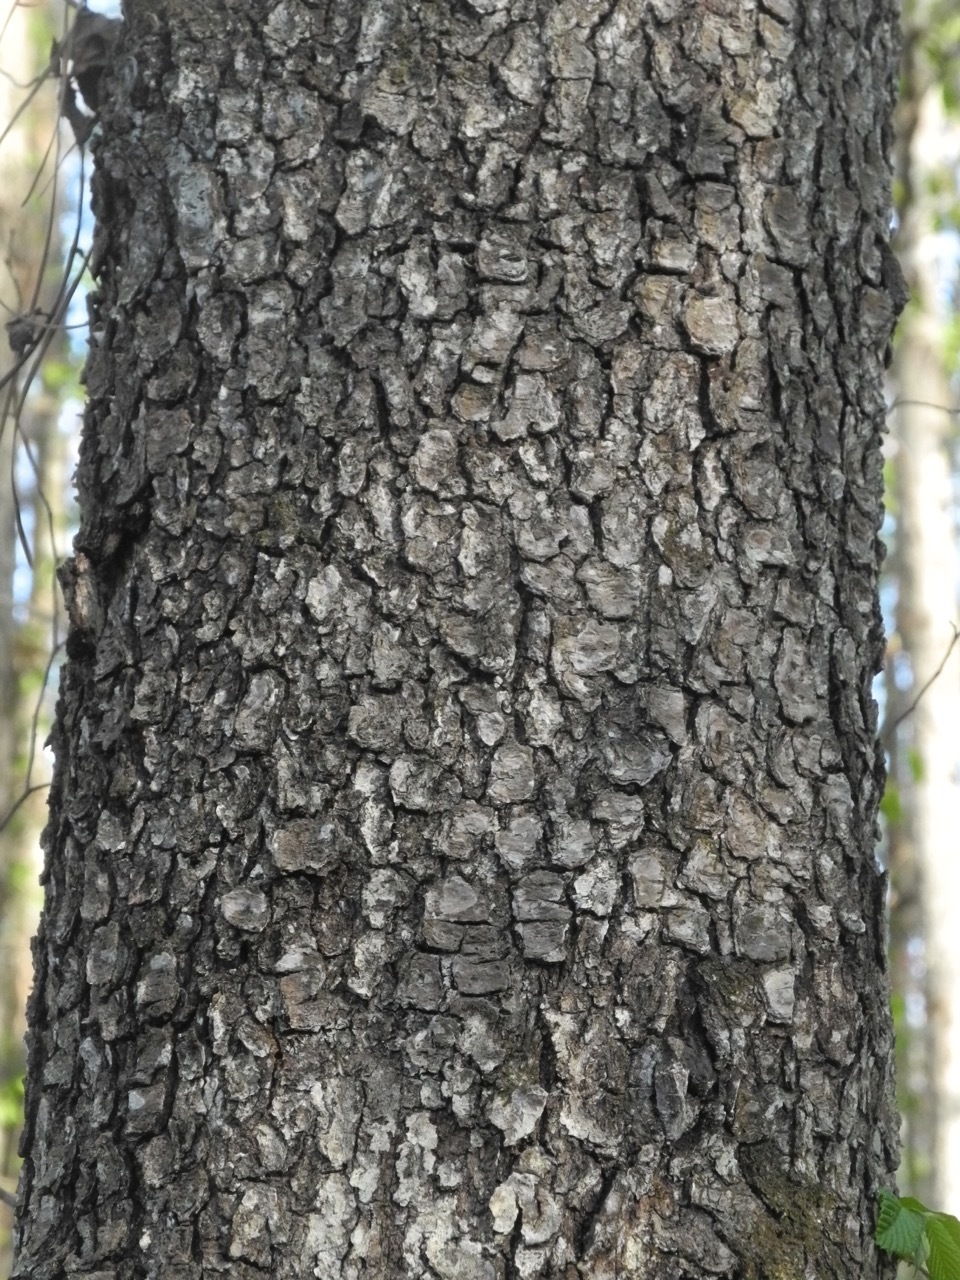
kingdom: Plantae
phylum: Tracheophyta
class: Magnoliopsida
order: Rosales
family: Rosaceae
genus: Prunus
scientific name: Prunus serotina
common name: Black cherry
